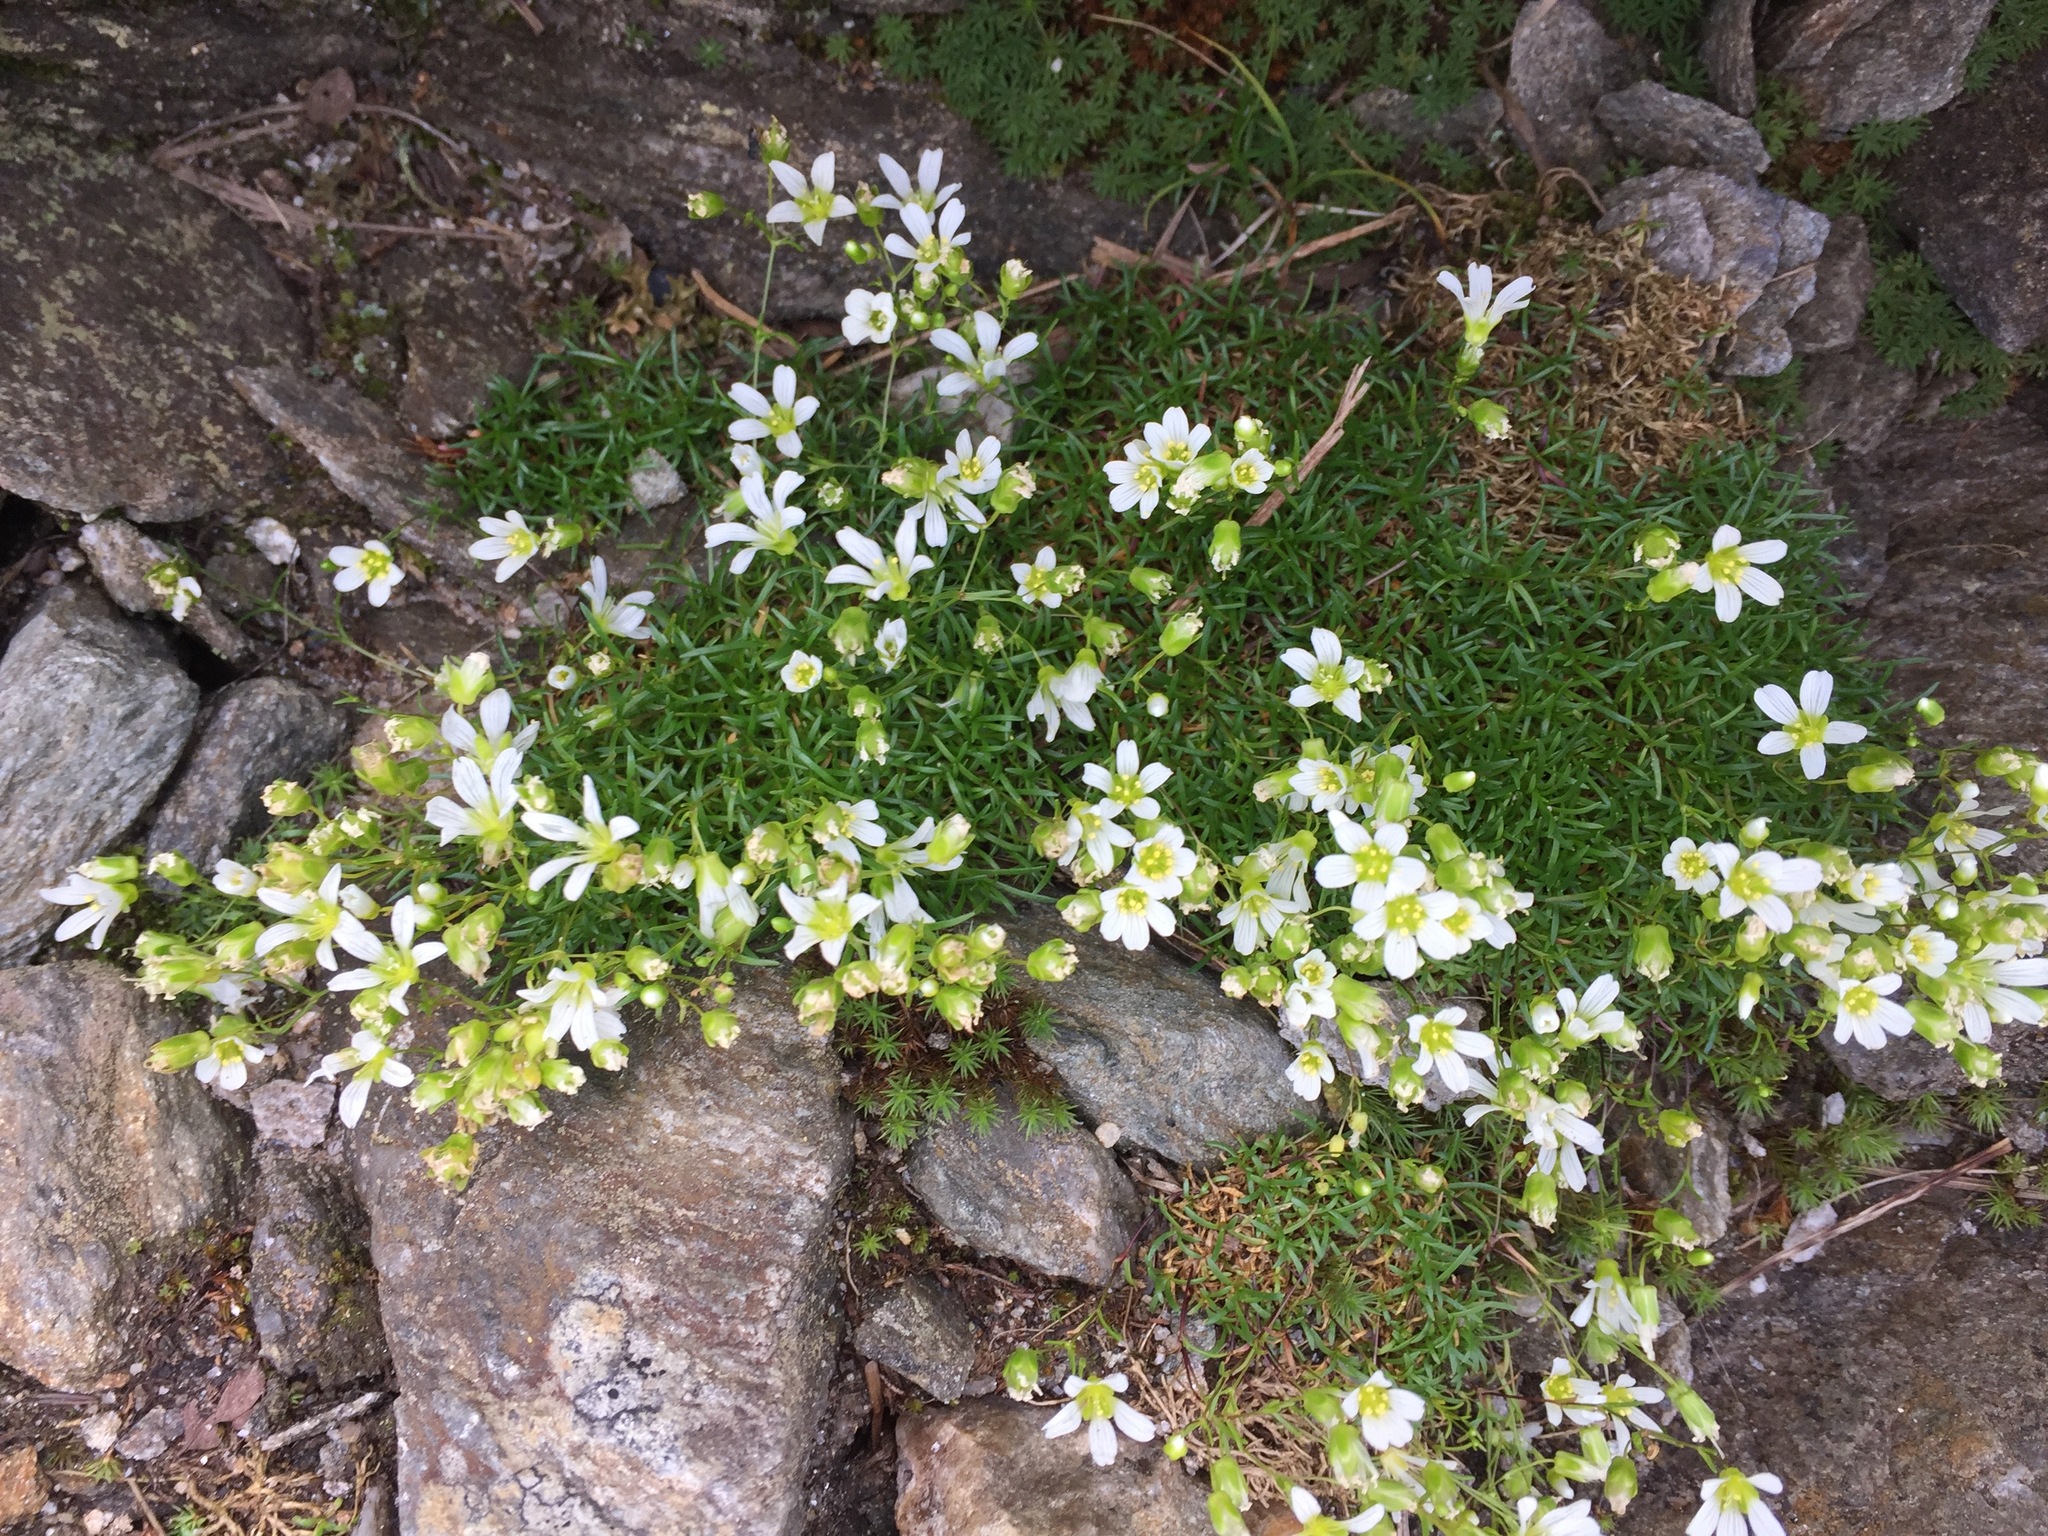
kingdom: Plantae
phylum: Tracheophyta
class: Magnoliopsida
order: Caryophyllales
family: Caryophyllaceae
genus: Geocarpon
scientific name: Geocarpon groenlandicum
